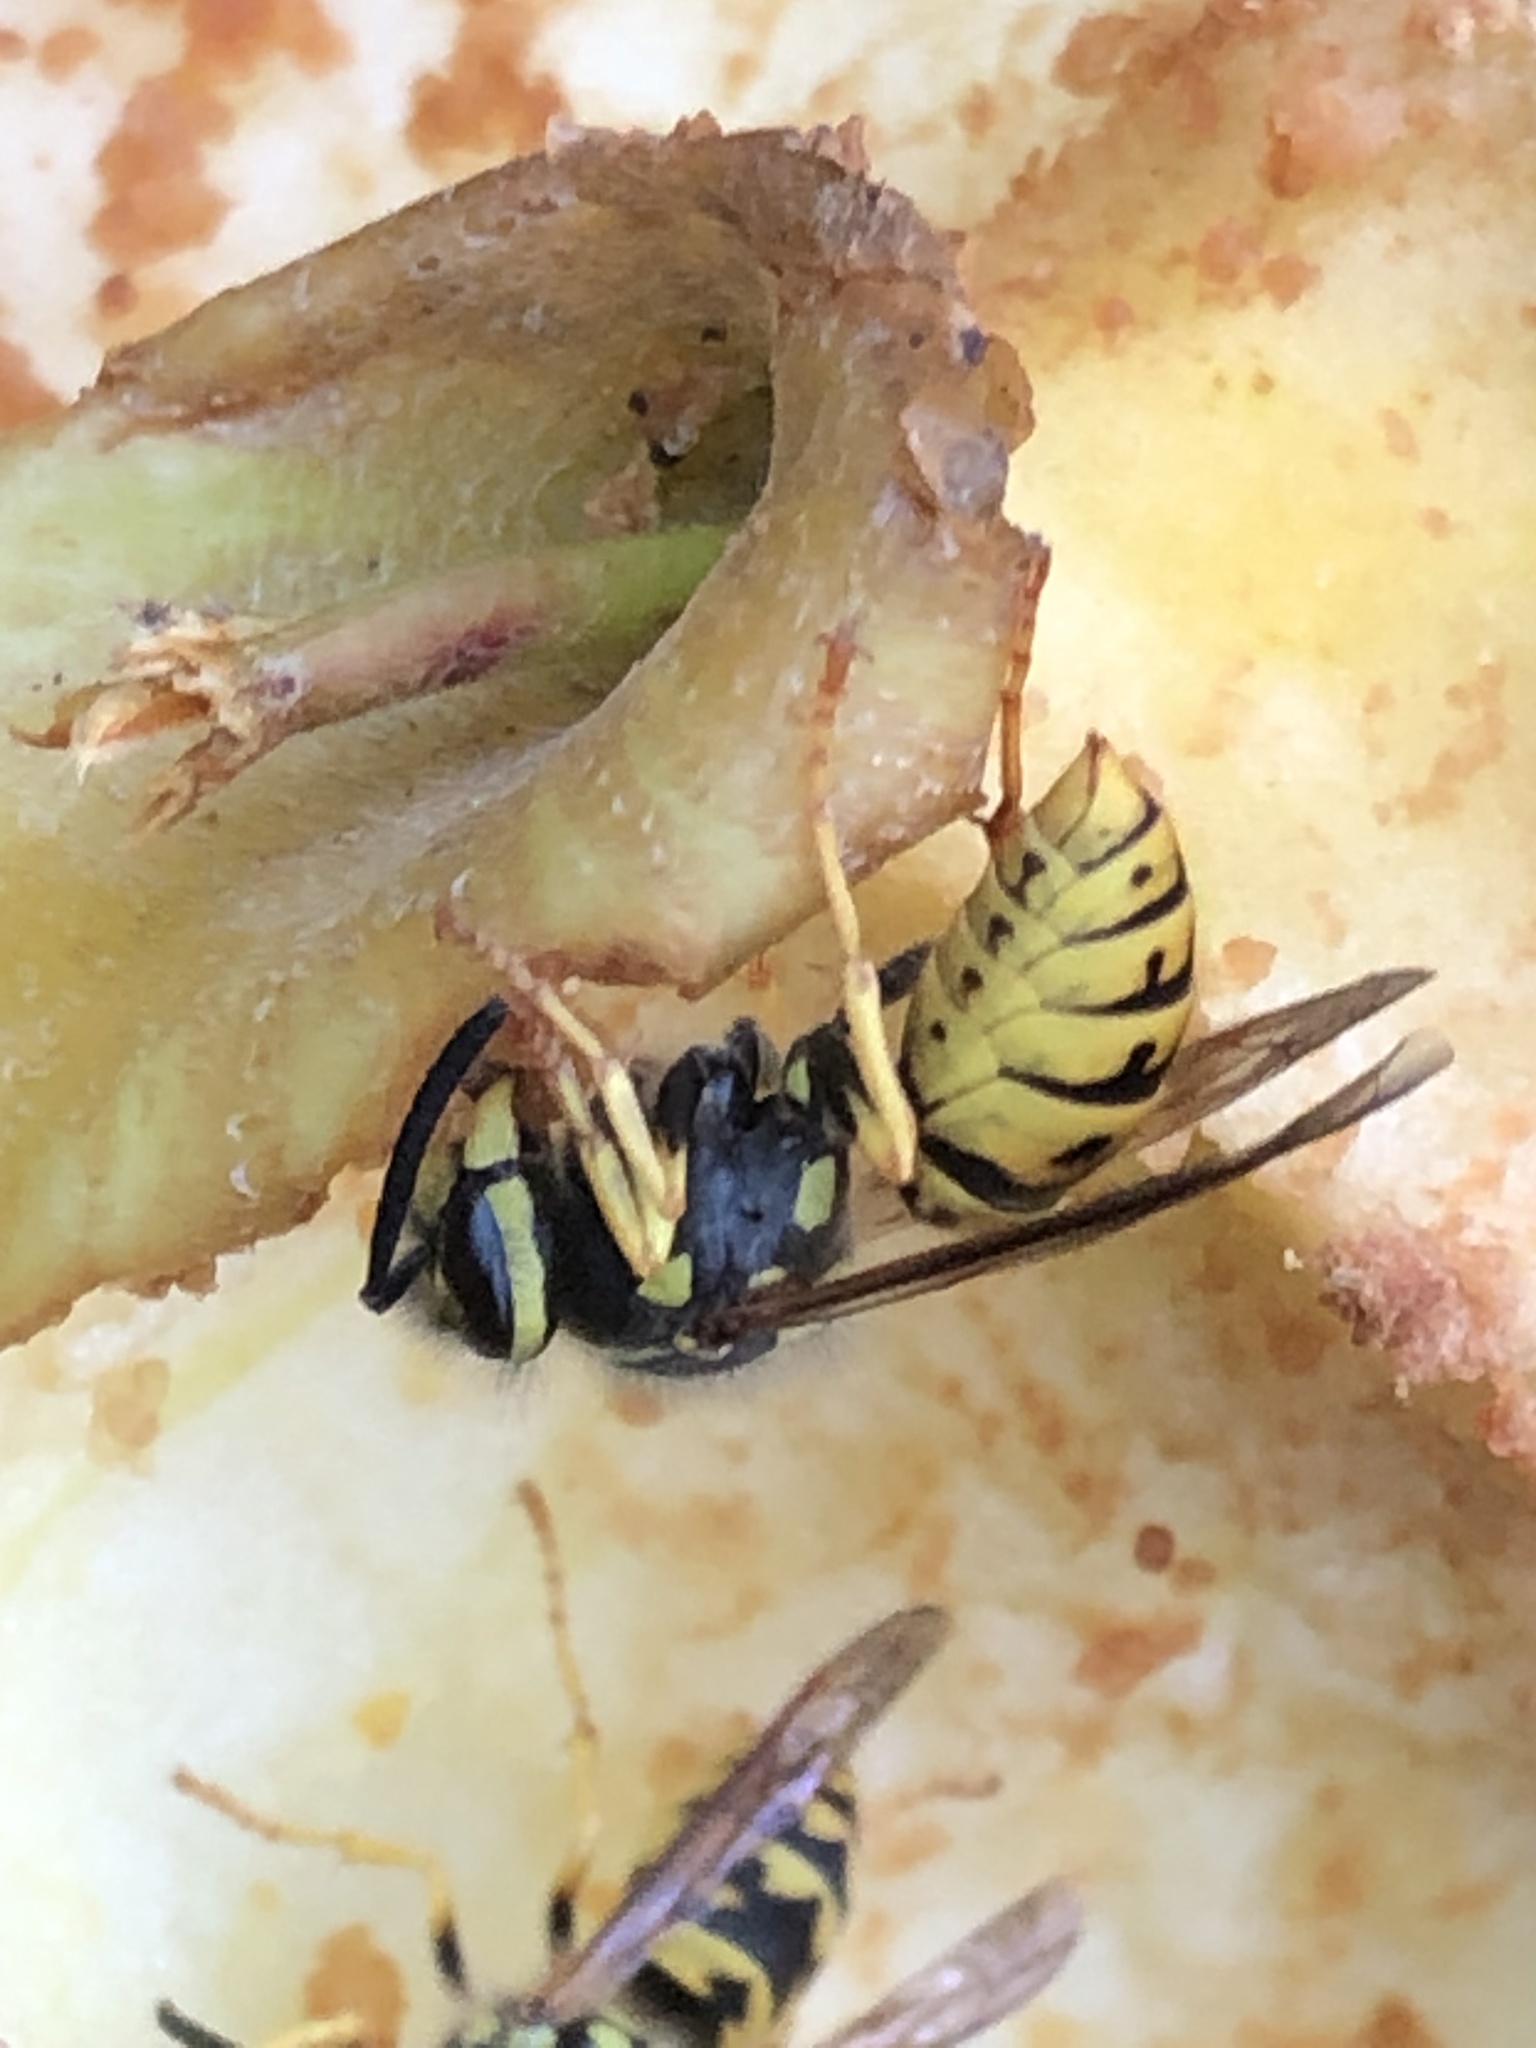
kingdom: Animalia
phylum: Arthropoda
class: Insecta
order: Hymenoptera
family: Vespidae
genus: Vespula
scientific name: Vespula germanica
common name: German wasp
